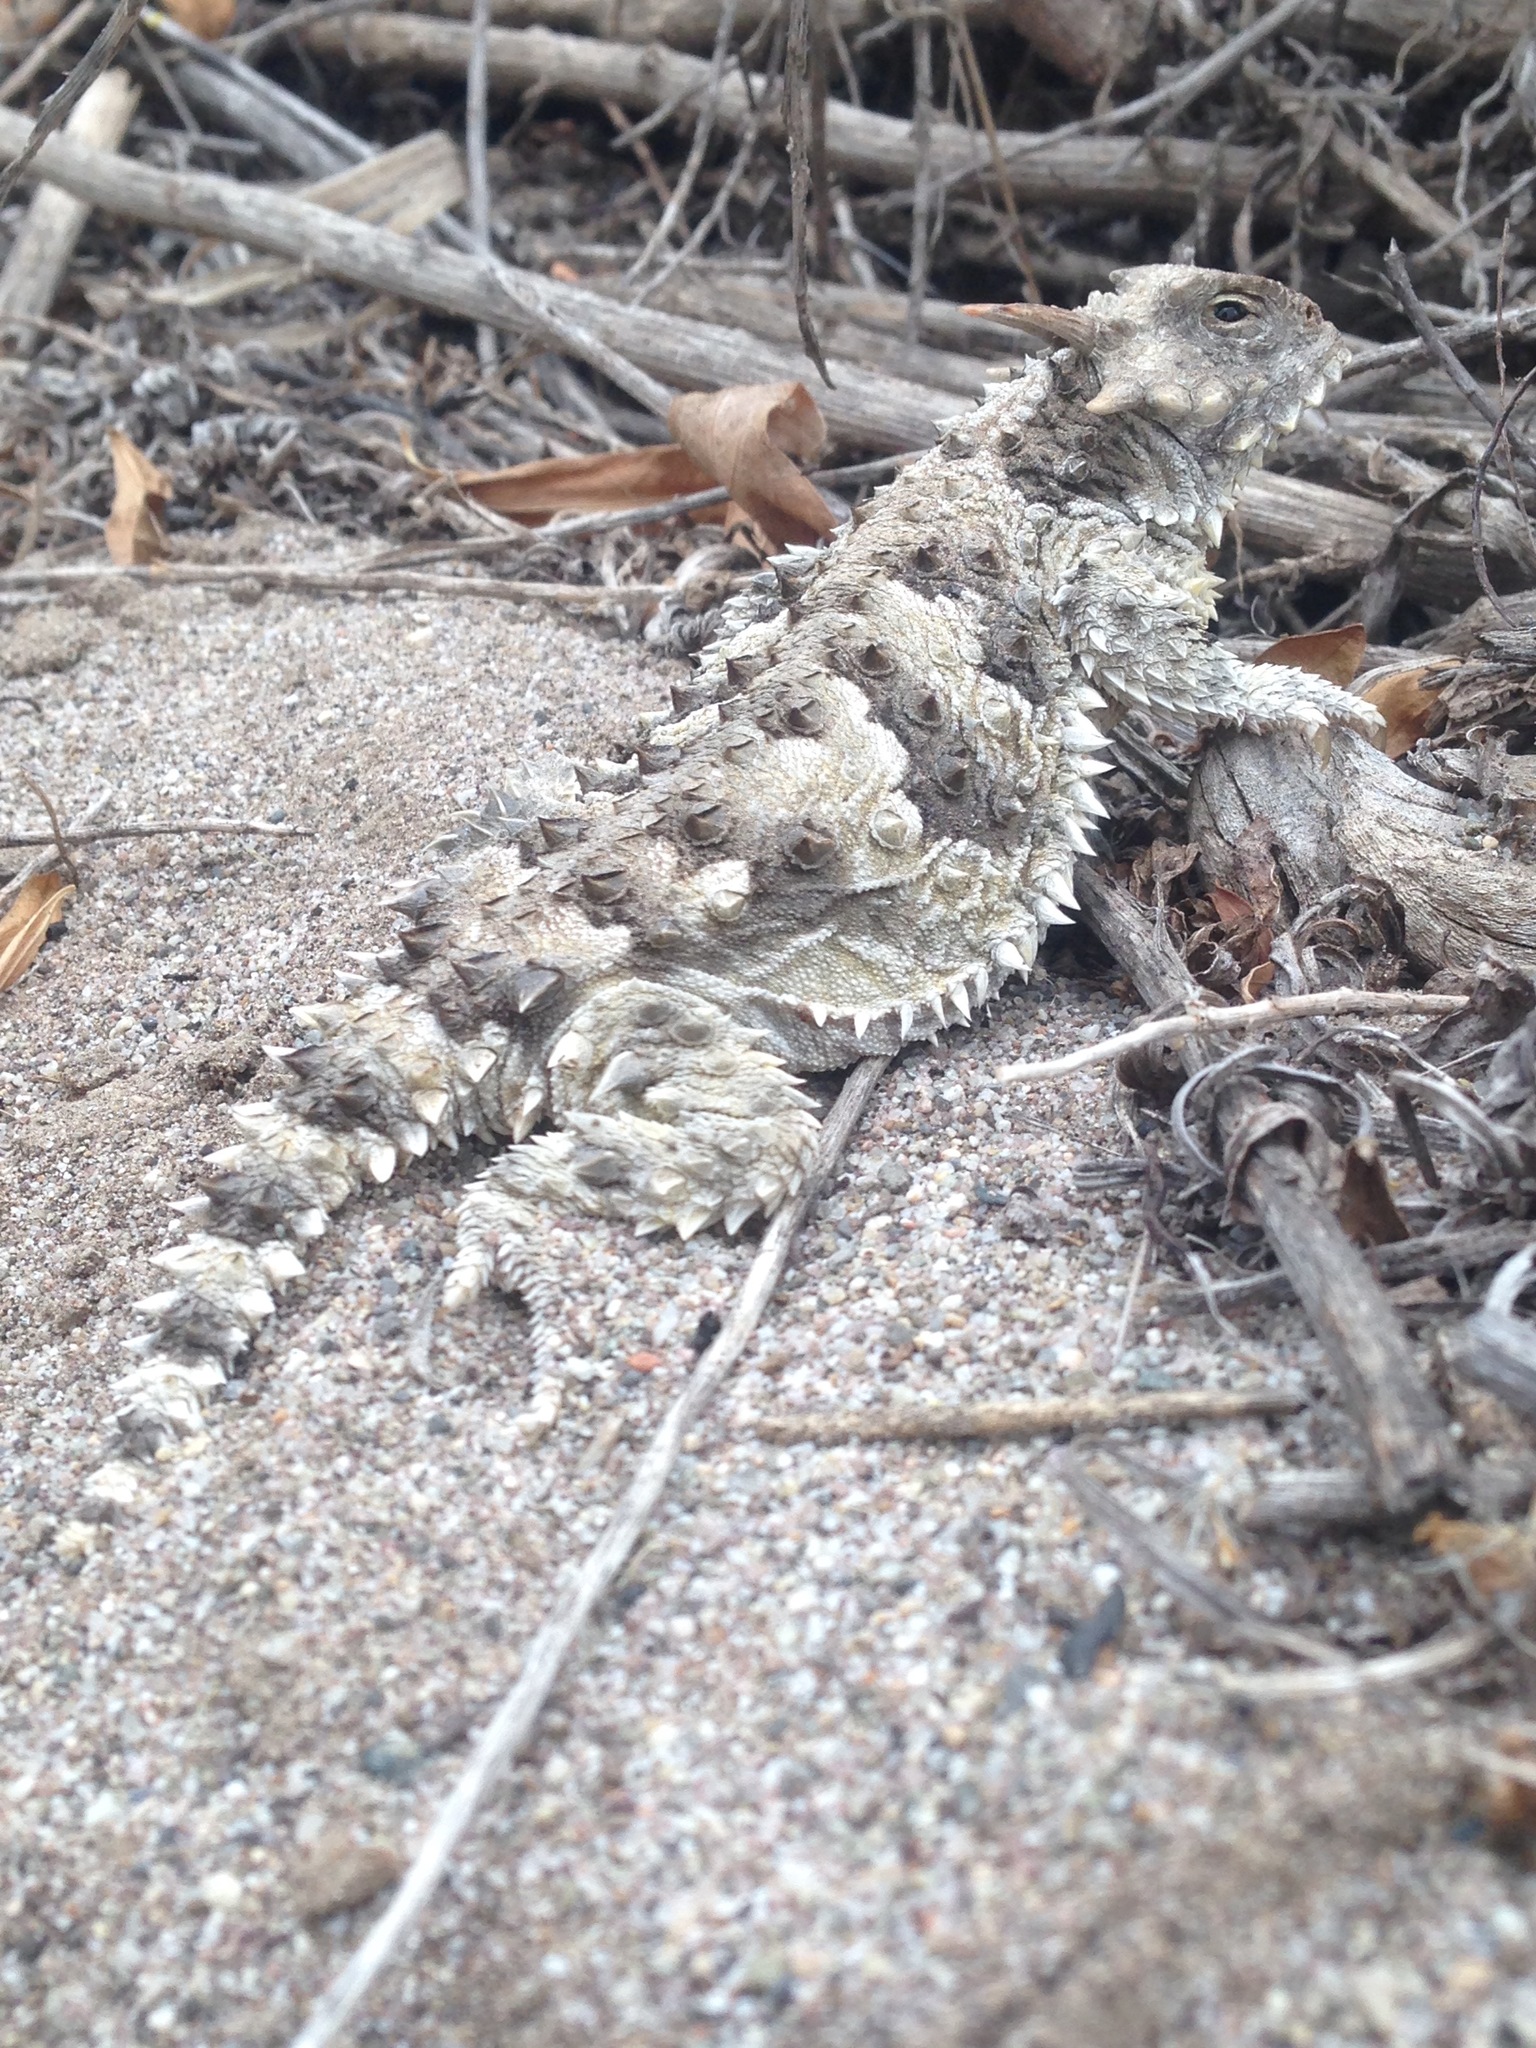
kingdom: Animalia
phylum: Chordata
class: Squamata
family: Phrynosomatidae
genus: Phrynosoma
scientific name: Phrynosoma blainvillii
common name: San diego horned lizard
